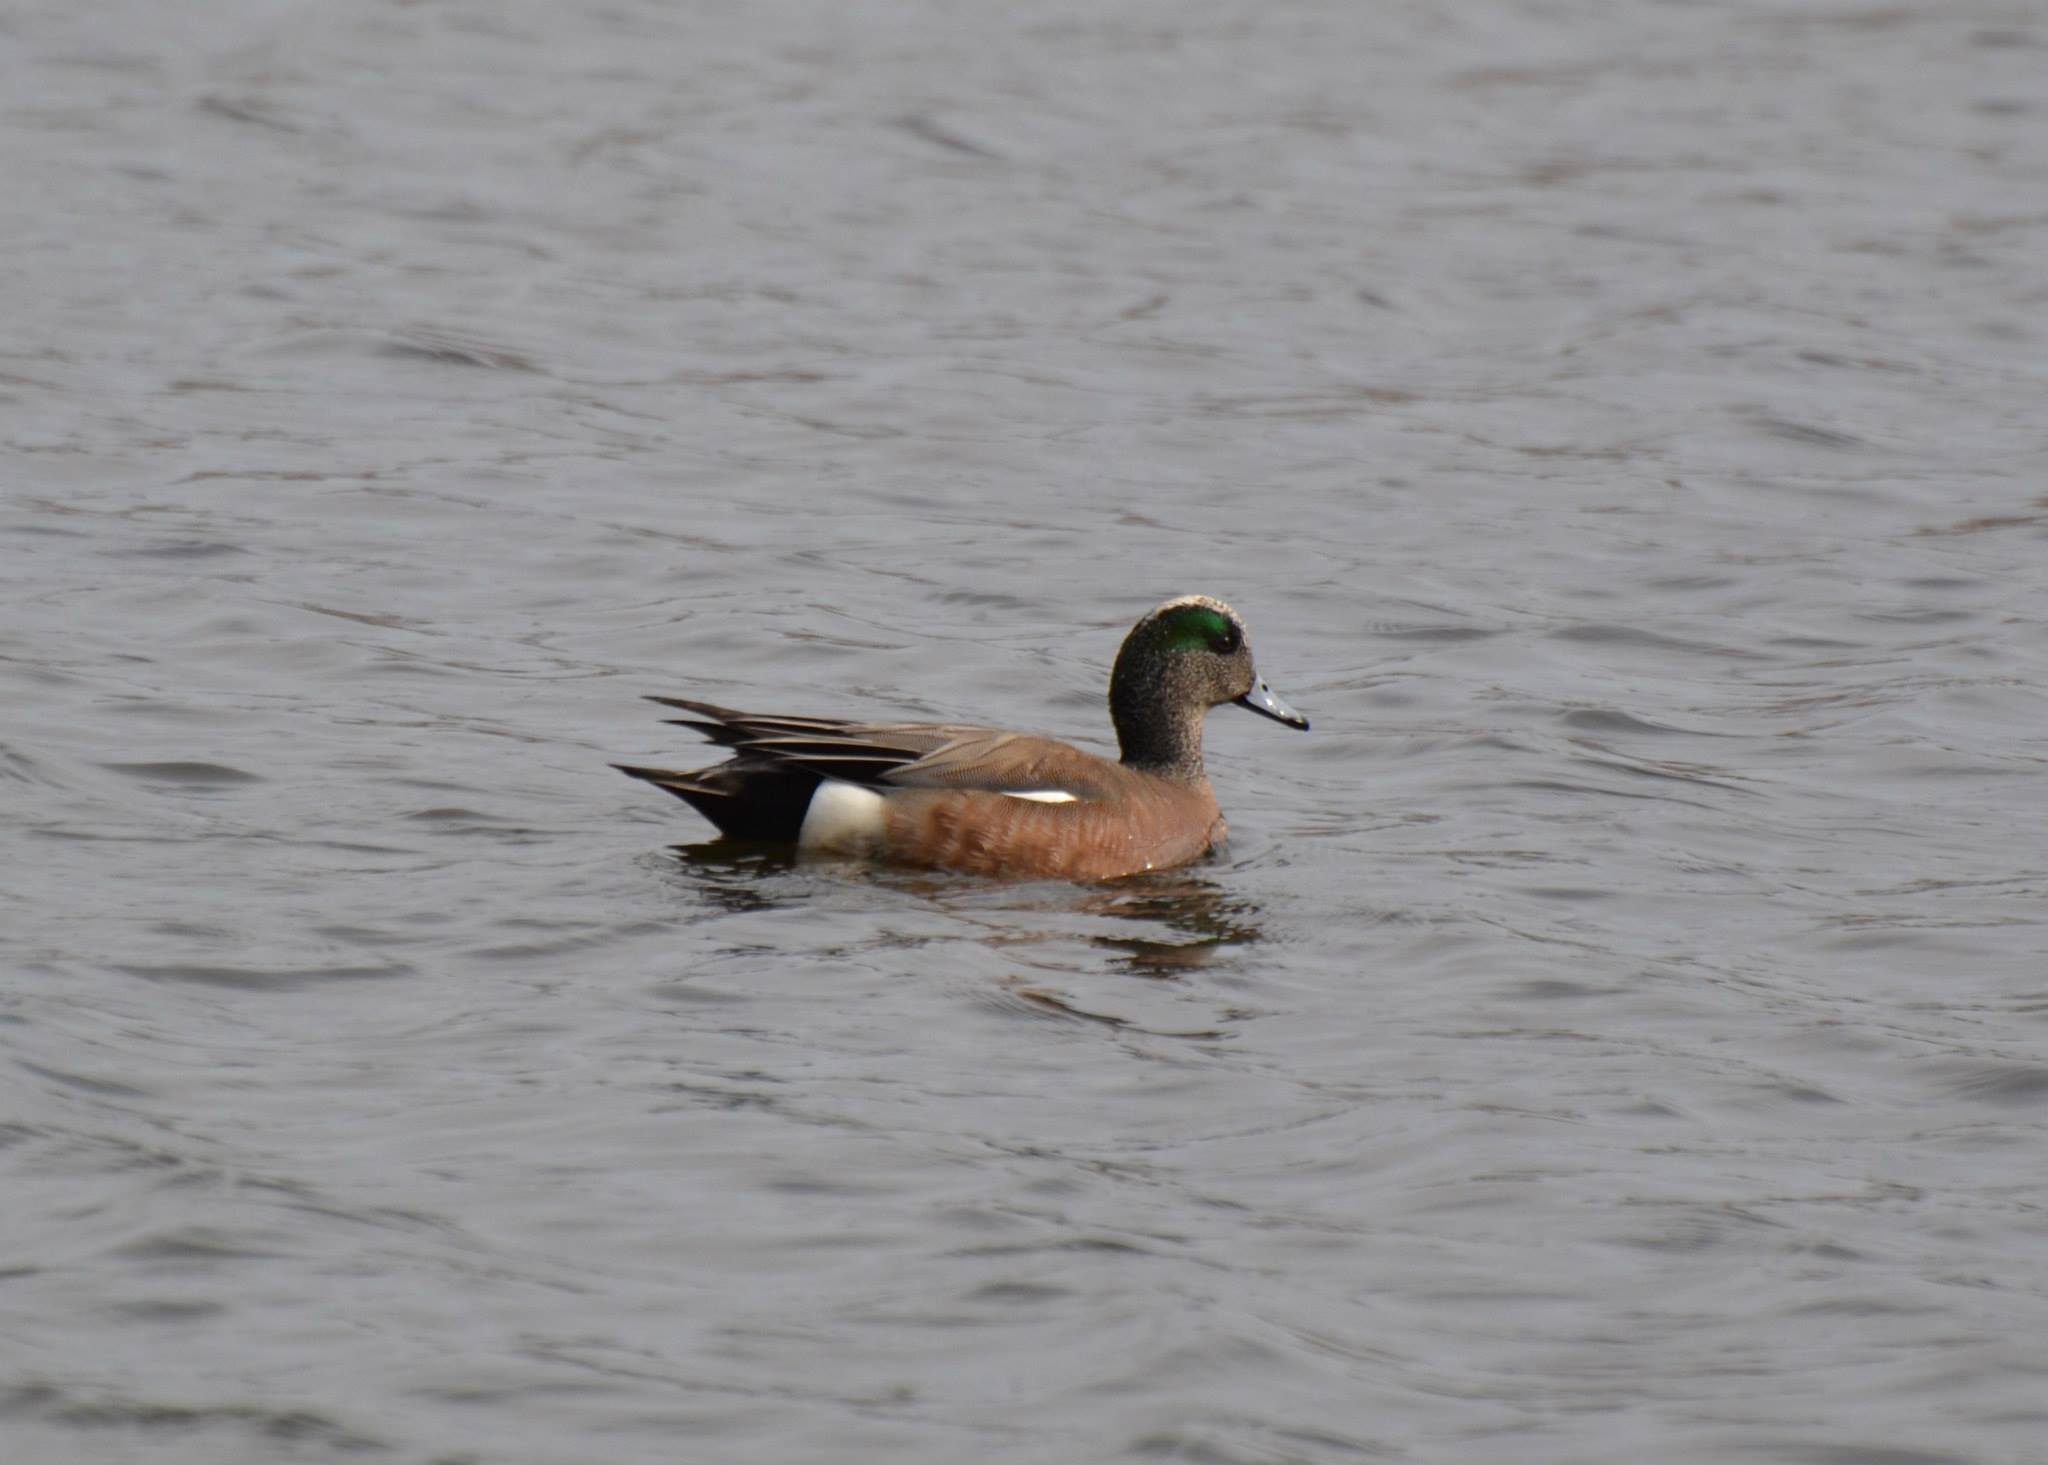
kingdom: Animalia
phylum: Chordata
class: Aves
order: Anseriformes
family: Anatidae
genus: Mareca
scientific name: Mareca americana
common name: American wigeon
